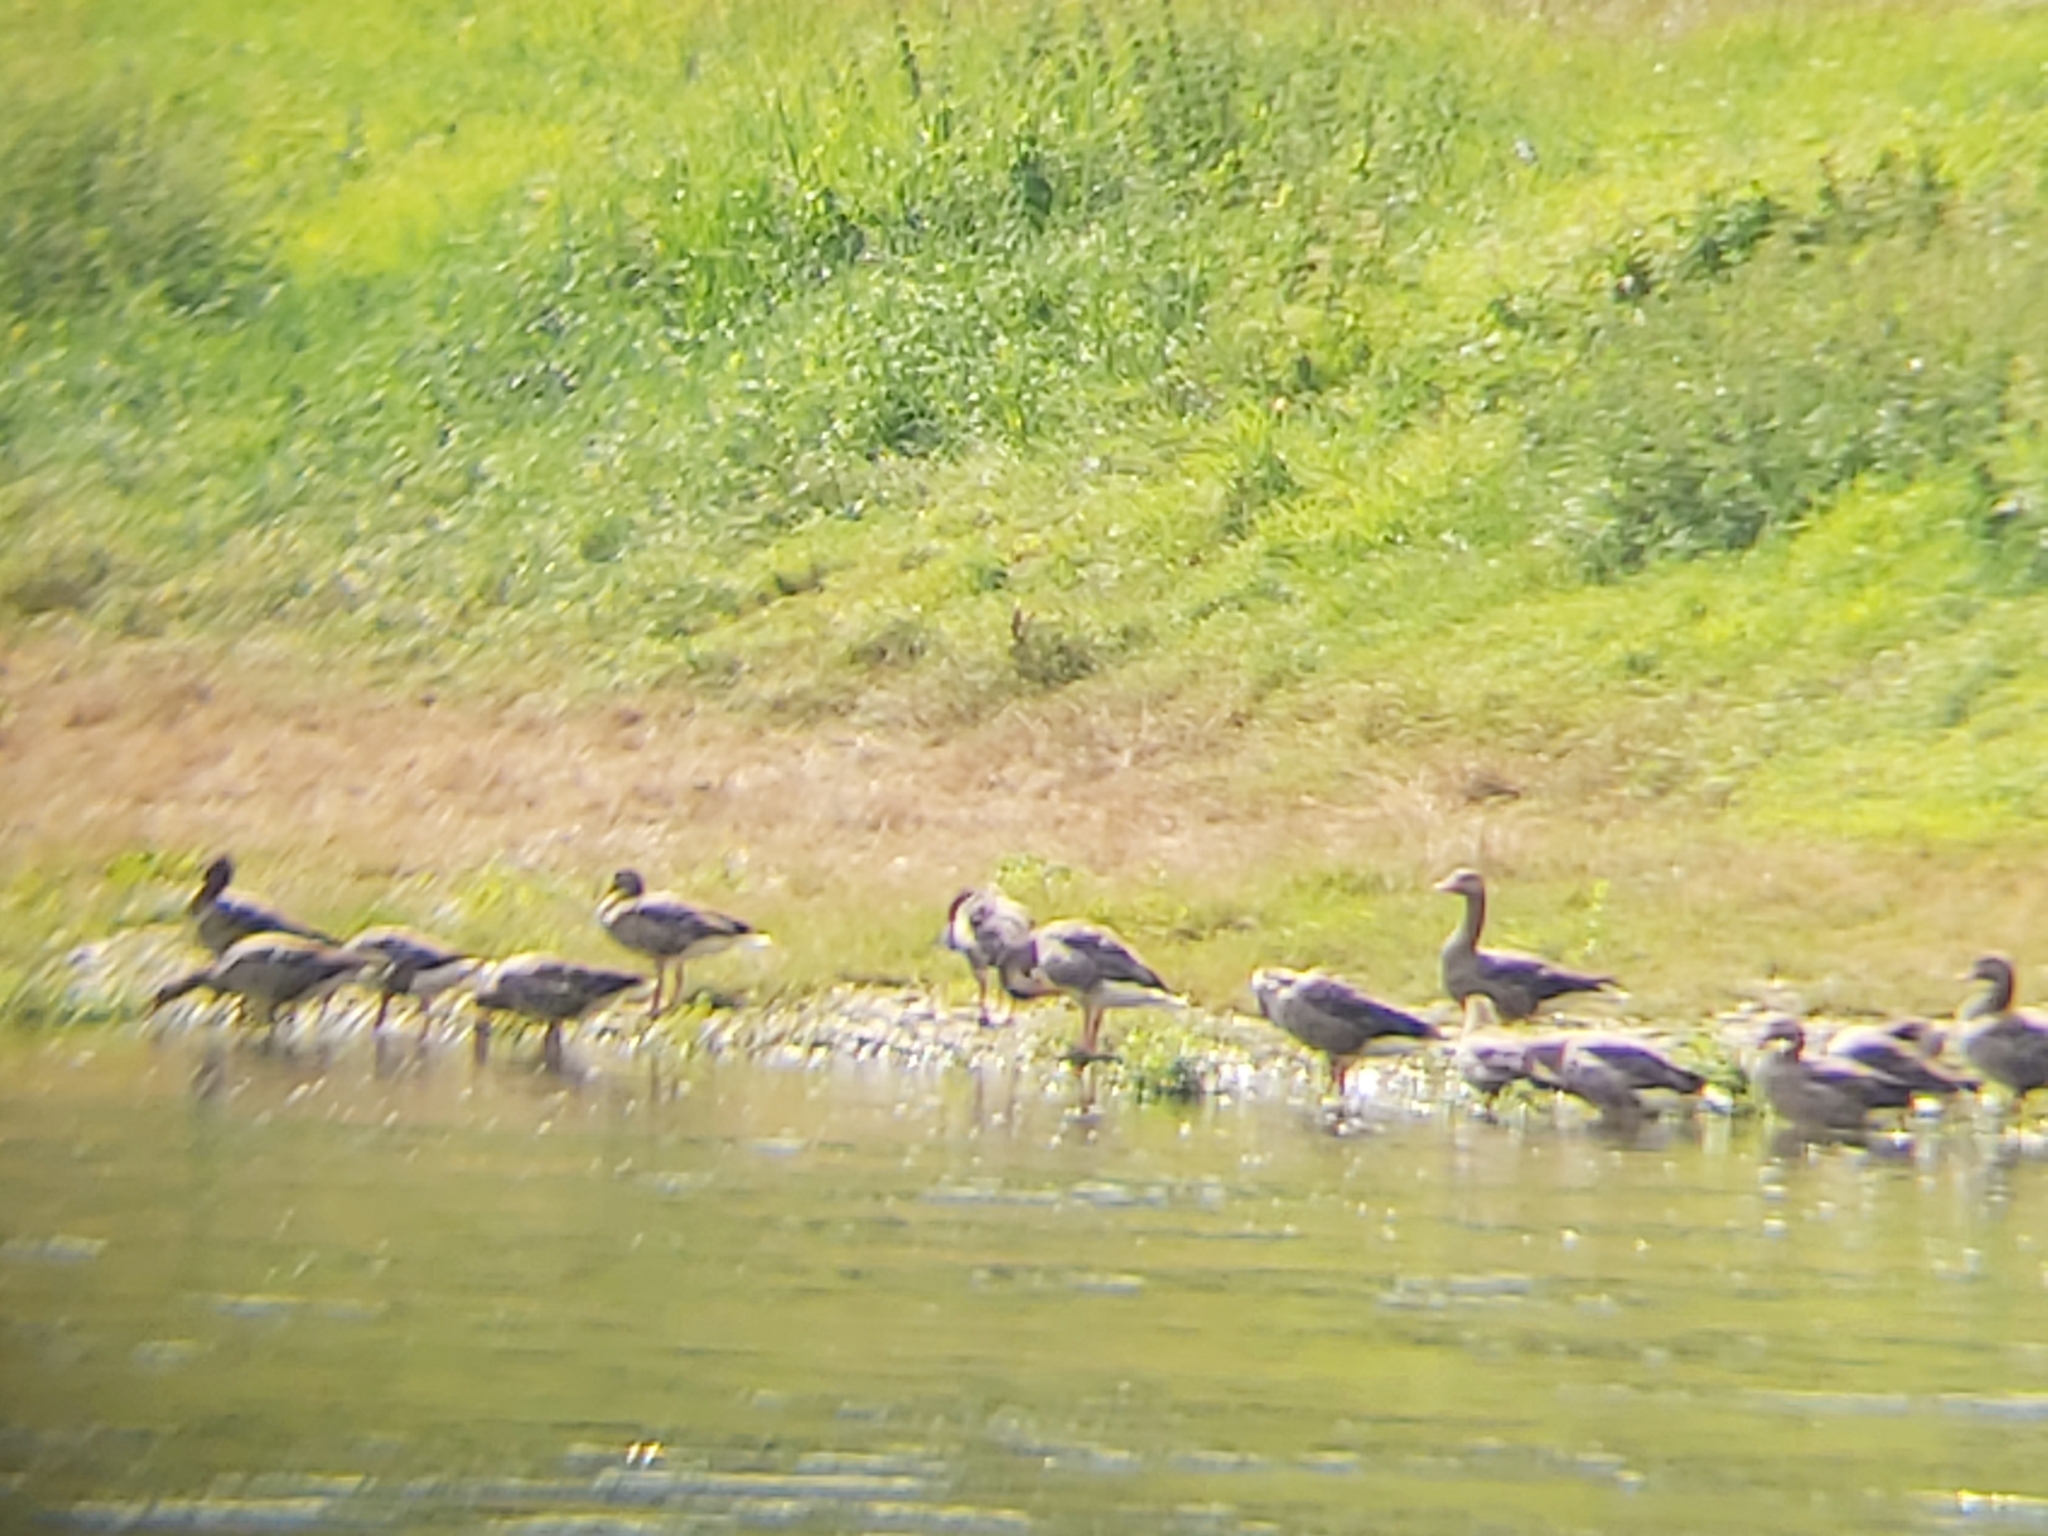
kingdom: Animalia
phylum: Chordata
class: Aves
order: Anseriformes
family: Anatidae
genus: Anser
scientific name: Anser anser
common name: Greylag goose
